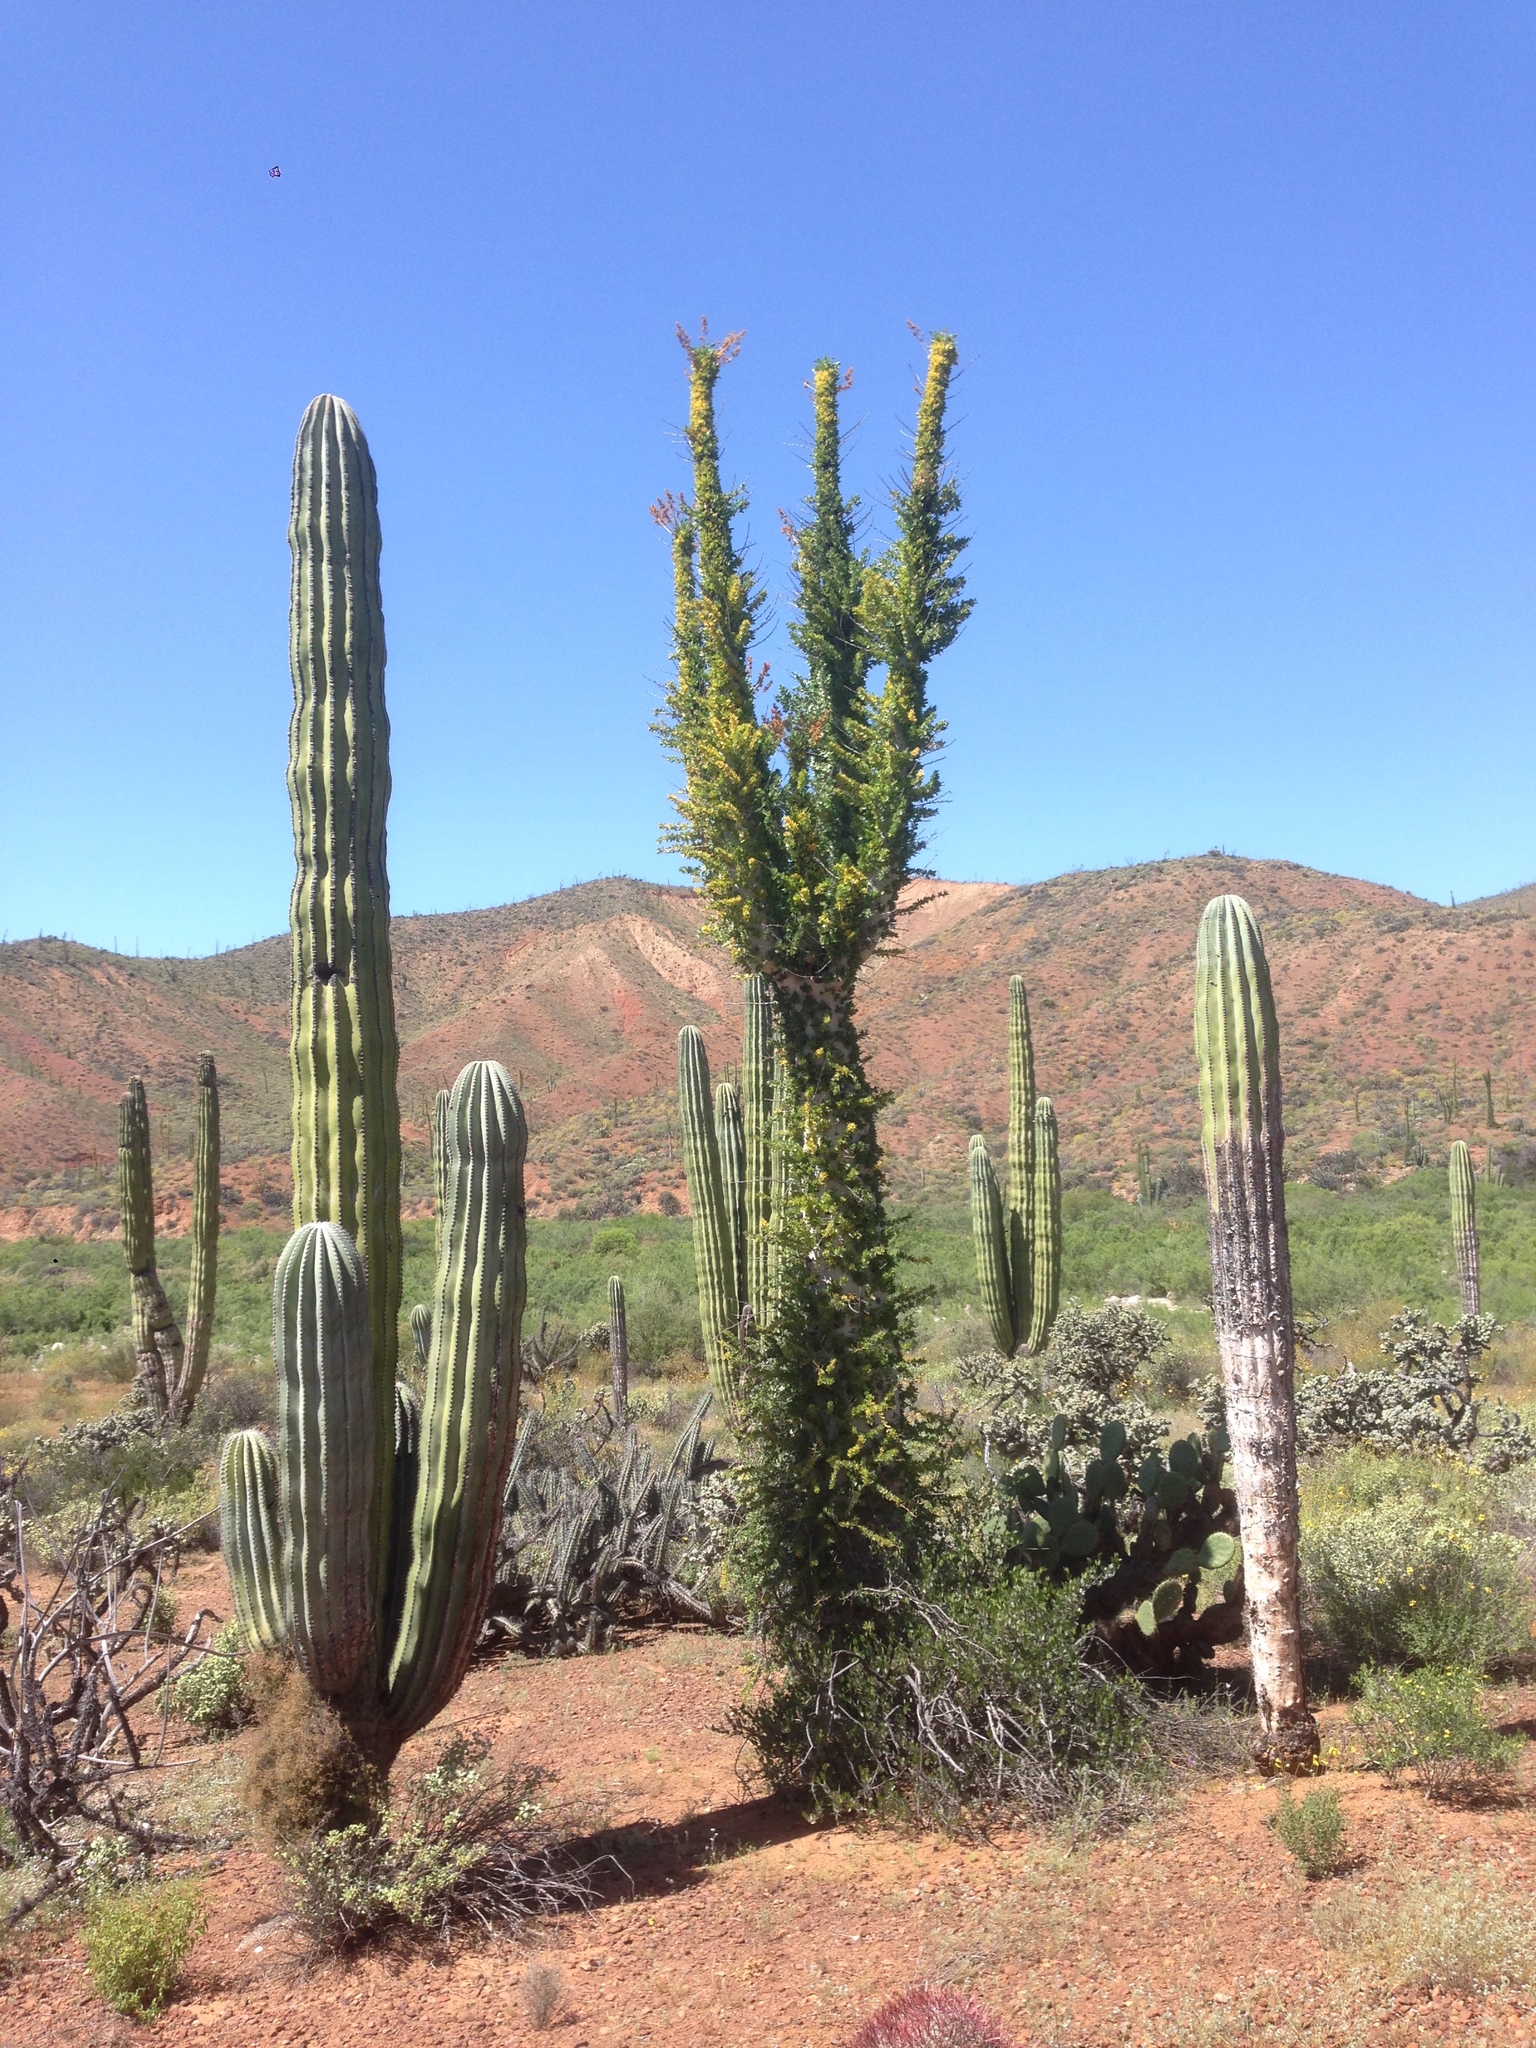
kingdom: Plantae
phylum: Tracheophyta
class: Magnoliopsida
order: Caryophyllales
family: Cactaceae
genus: Pachycereus
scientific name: Pachycereus pringlei
